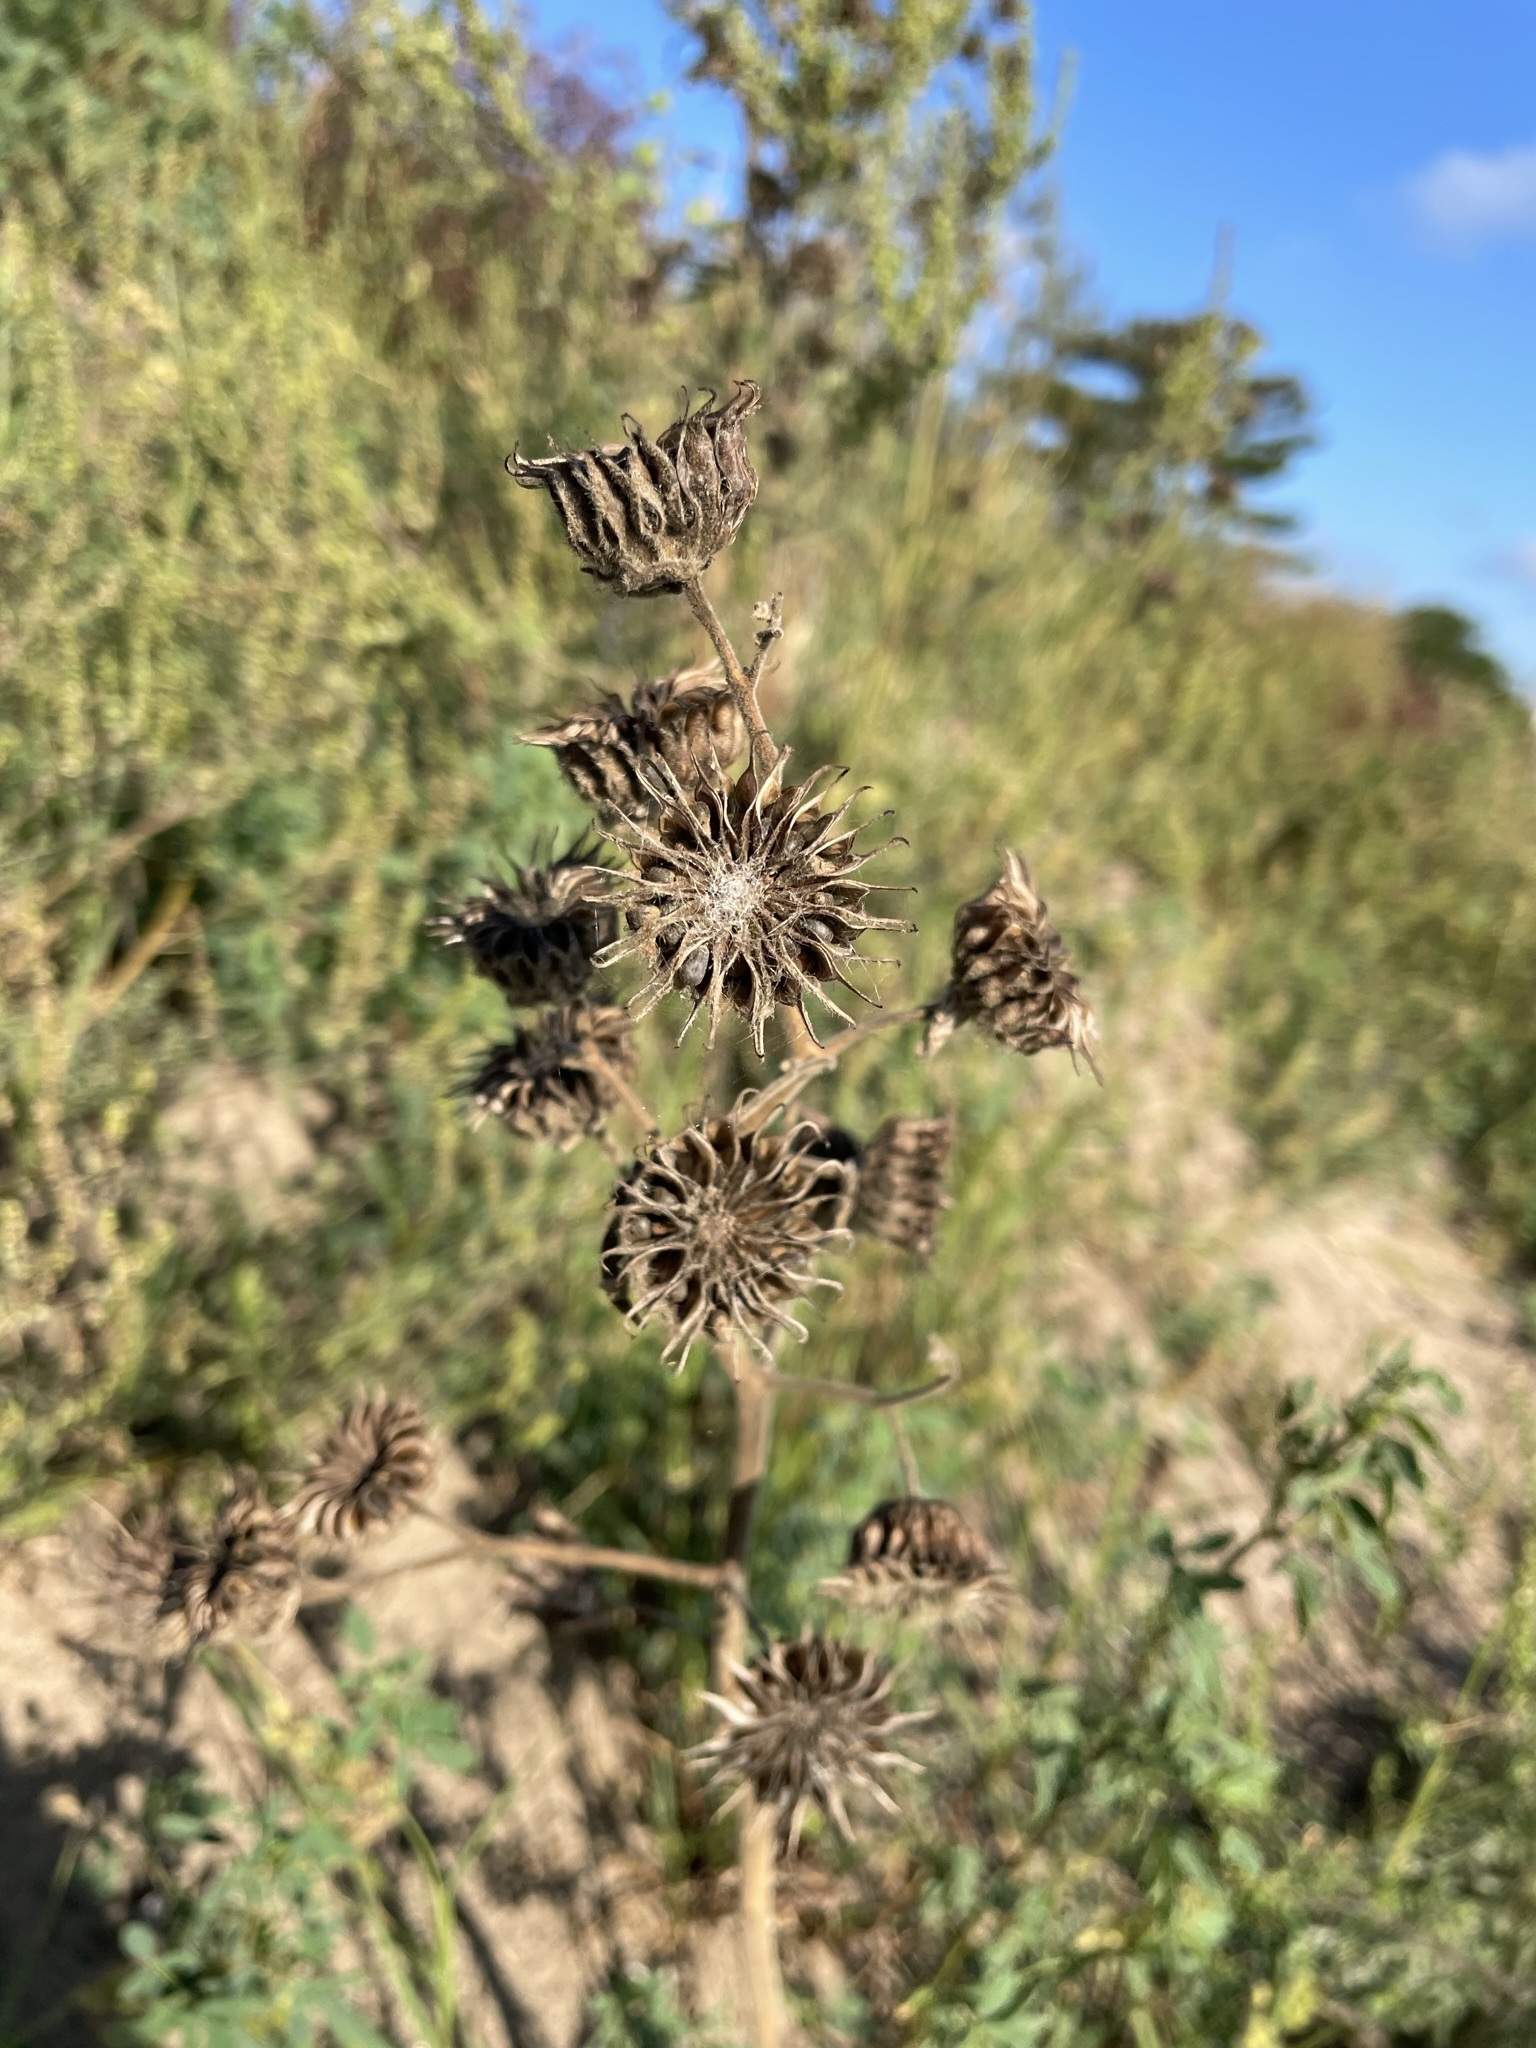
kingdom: Plantae
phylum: Tracheophyta
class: Magnoliopsida
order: Malvales
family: Malvaceae
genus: Abutilon
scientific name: Abutilon theophrasti
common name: Velvetleaf
